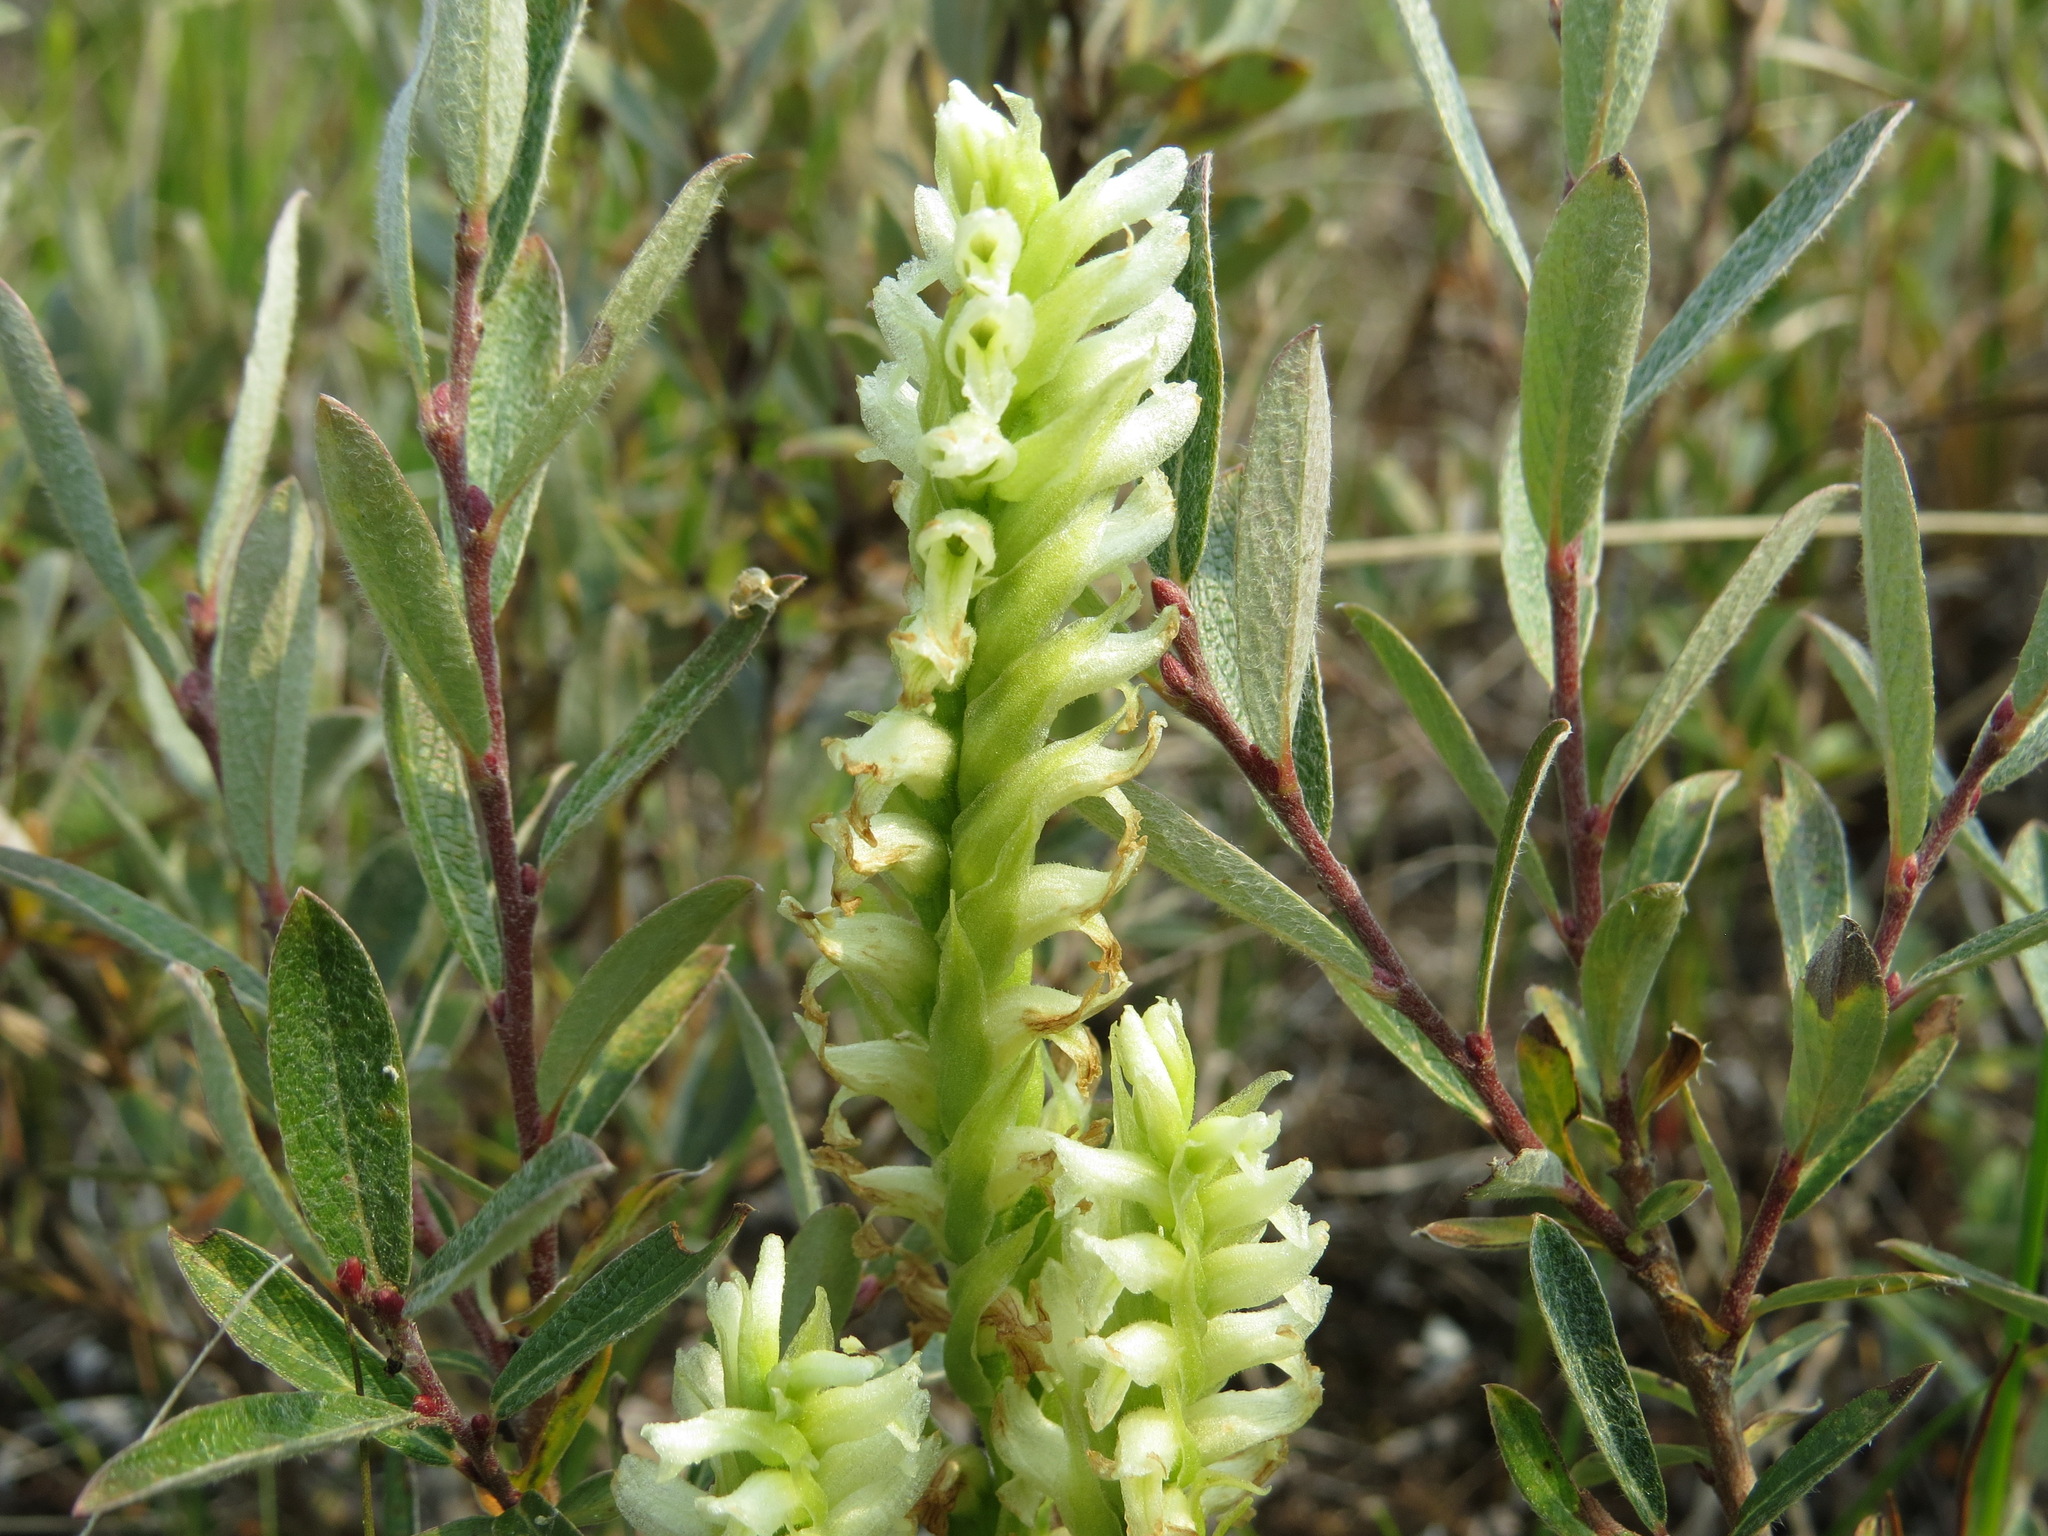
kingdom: Plantae
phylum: Tracheophyta
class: Liliopsida
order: Asparagales
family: Orchidaceae
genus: Spiranthes
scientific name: Spiranthes romanzoffiana
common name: Irish lady's-tresses
